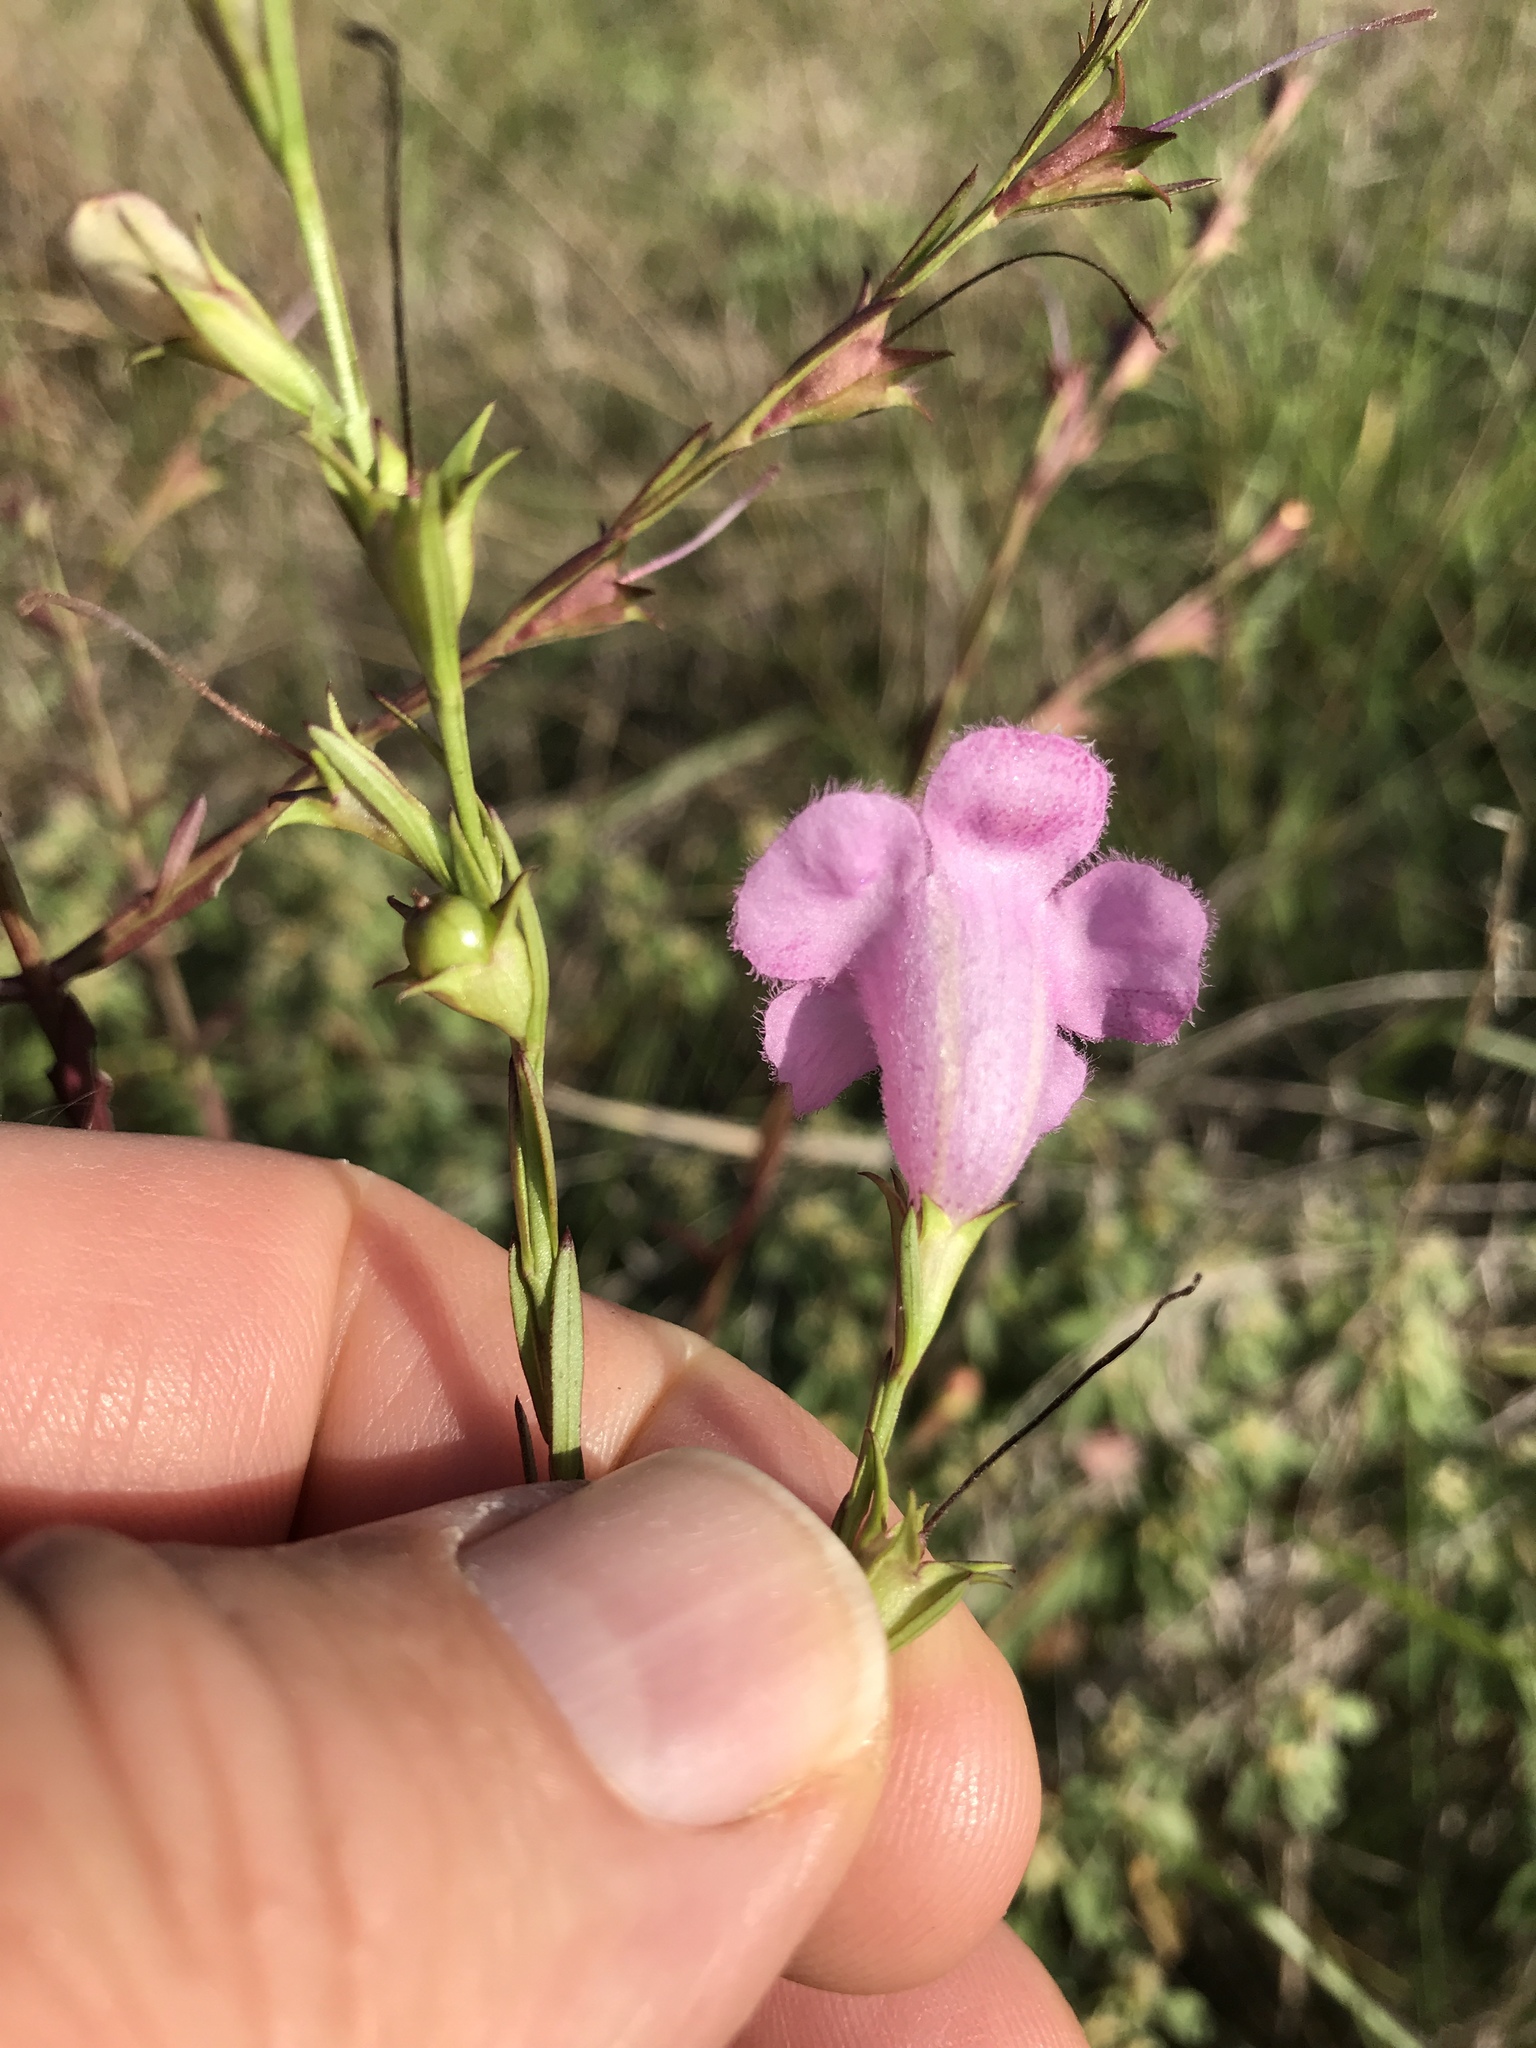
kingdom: Plantae
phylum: Tracheophyta
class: Magnoliopsida
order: Lamiales
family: Orobanchaceae
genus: Agalinis
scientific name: Agalinis heterophylla
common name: Prairie agalinis
